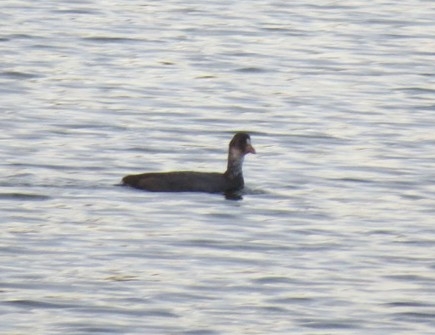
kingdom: Animalia
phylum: Chordata
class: Aves
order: Gruiformes
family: Rallidae
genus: Fulica
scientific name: Fulica atra
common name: Eurasian coot
